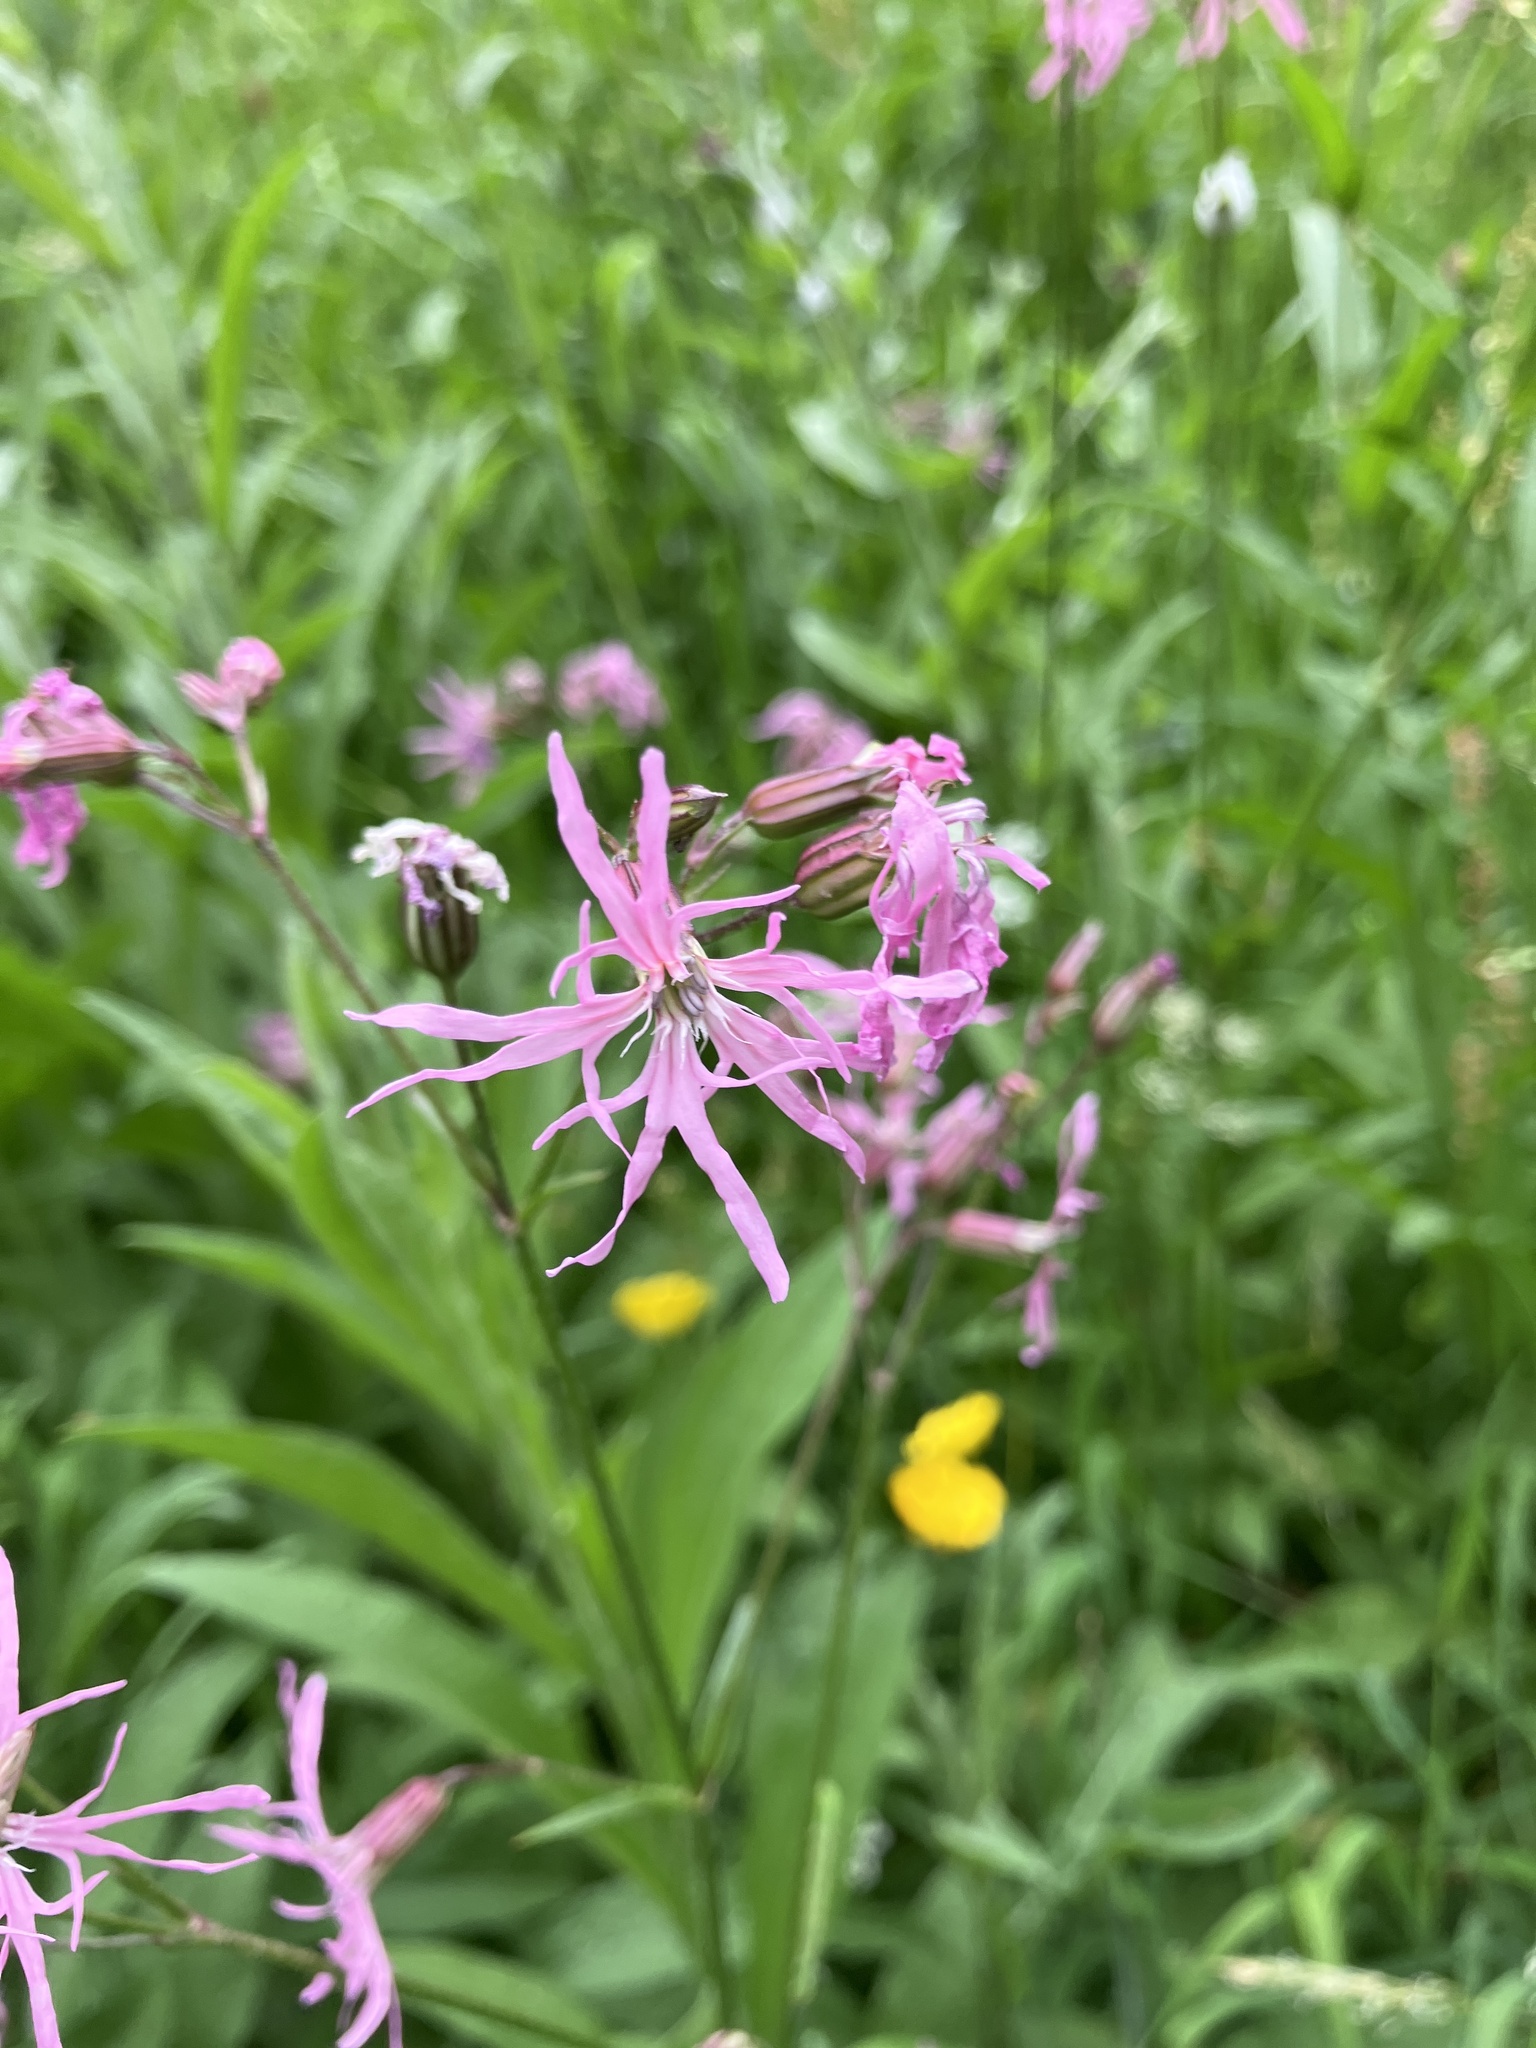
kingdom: Plantae
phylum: Tracheophyta
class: Magnoliopsida
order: Caryophyllales
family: Caryophyllaceae
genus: Silene
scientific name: Silene flos-cuculi
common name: Ragged-robin
